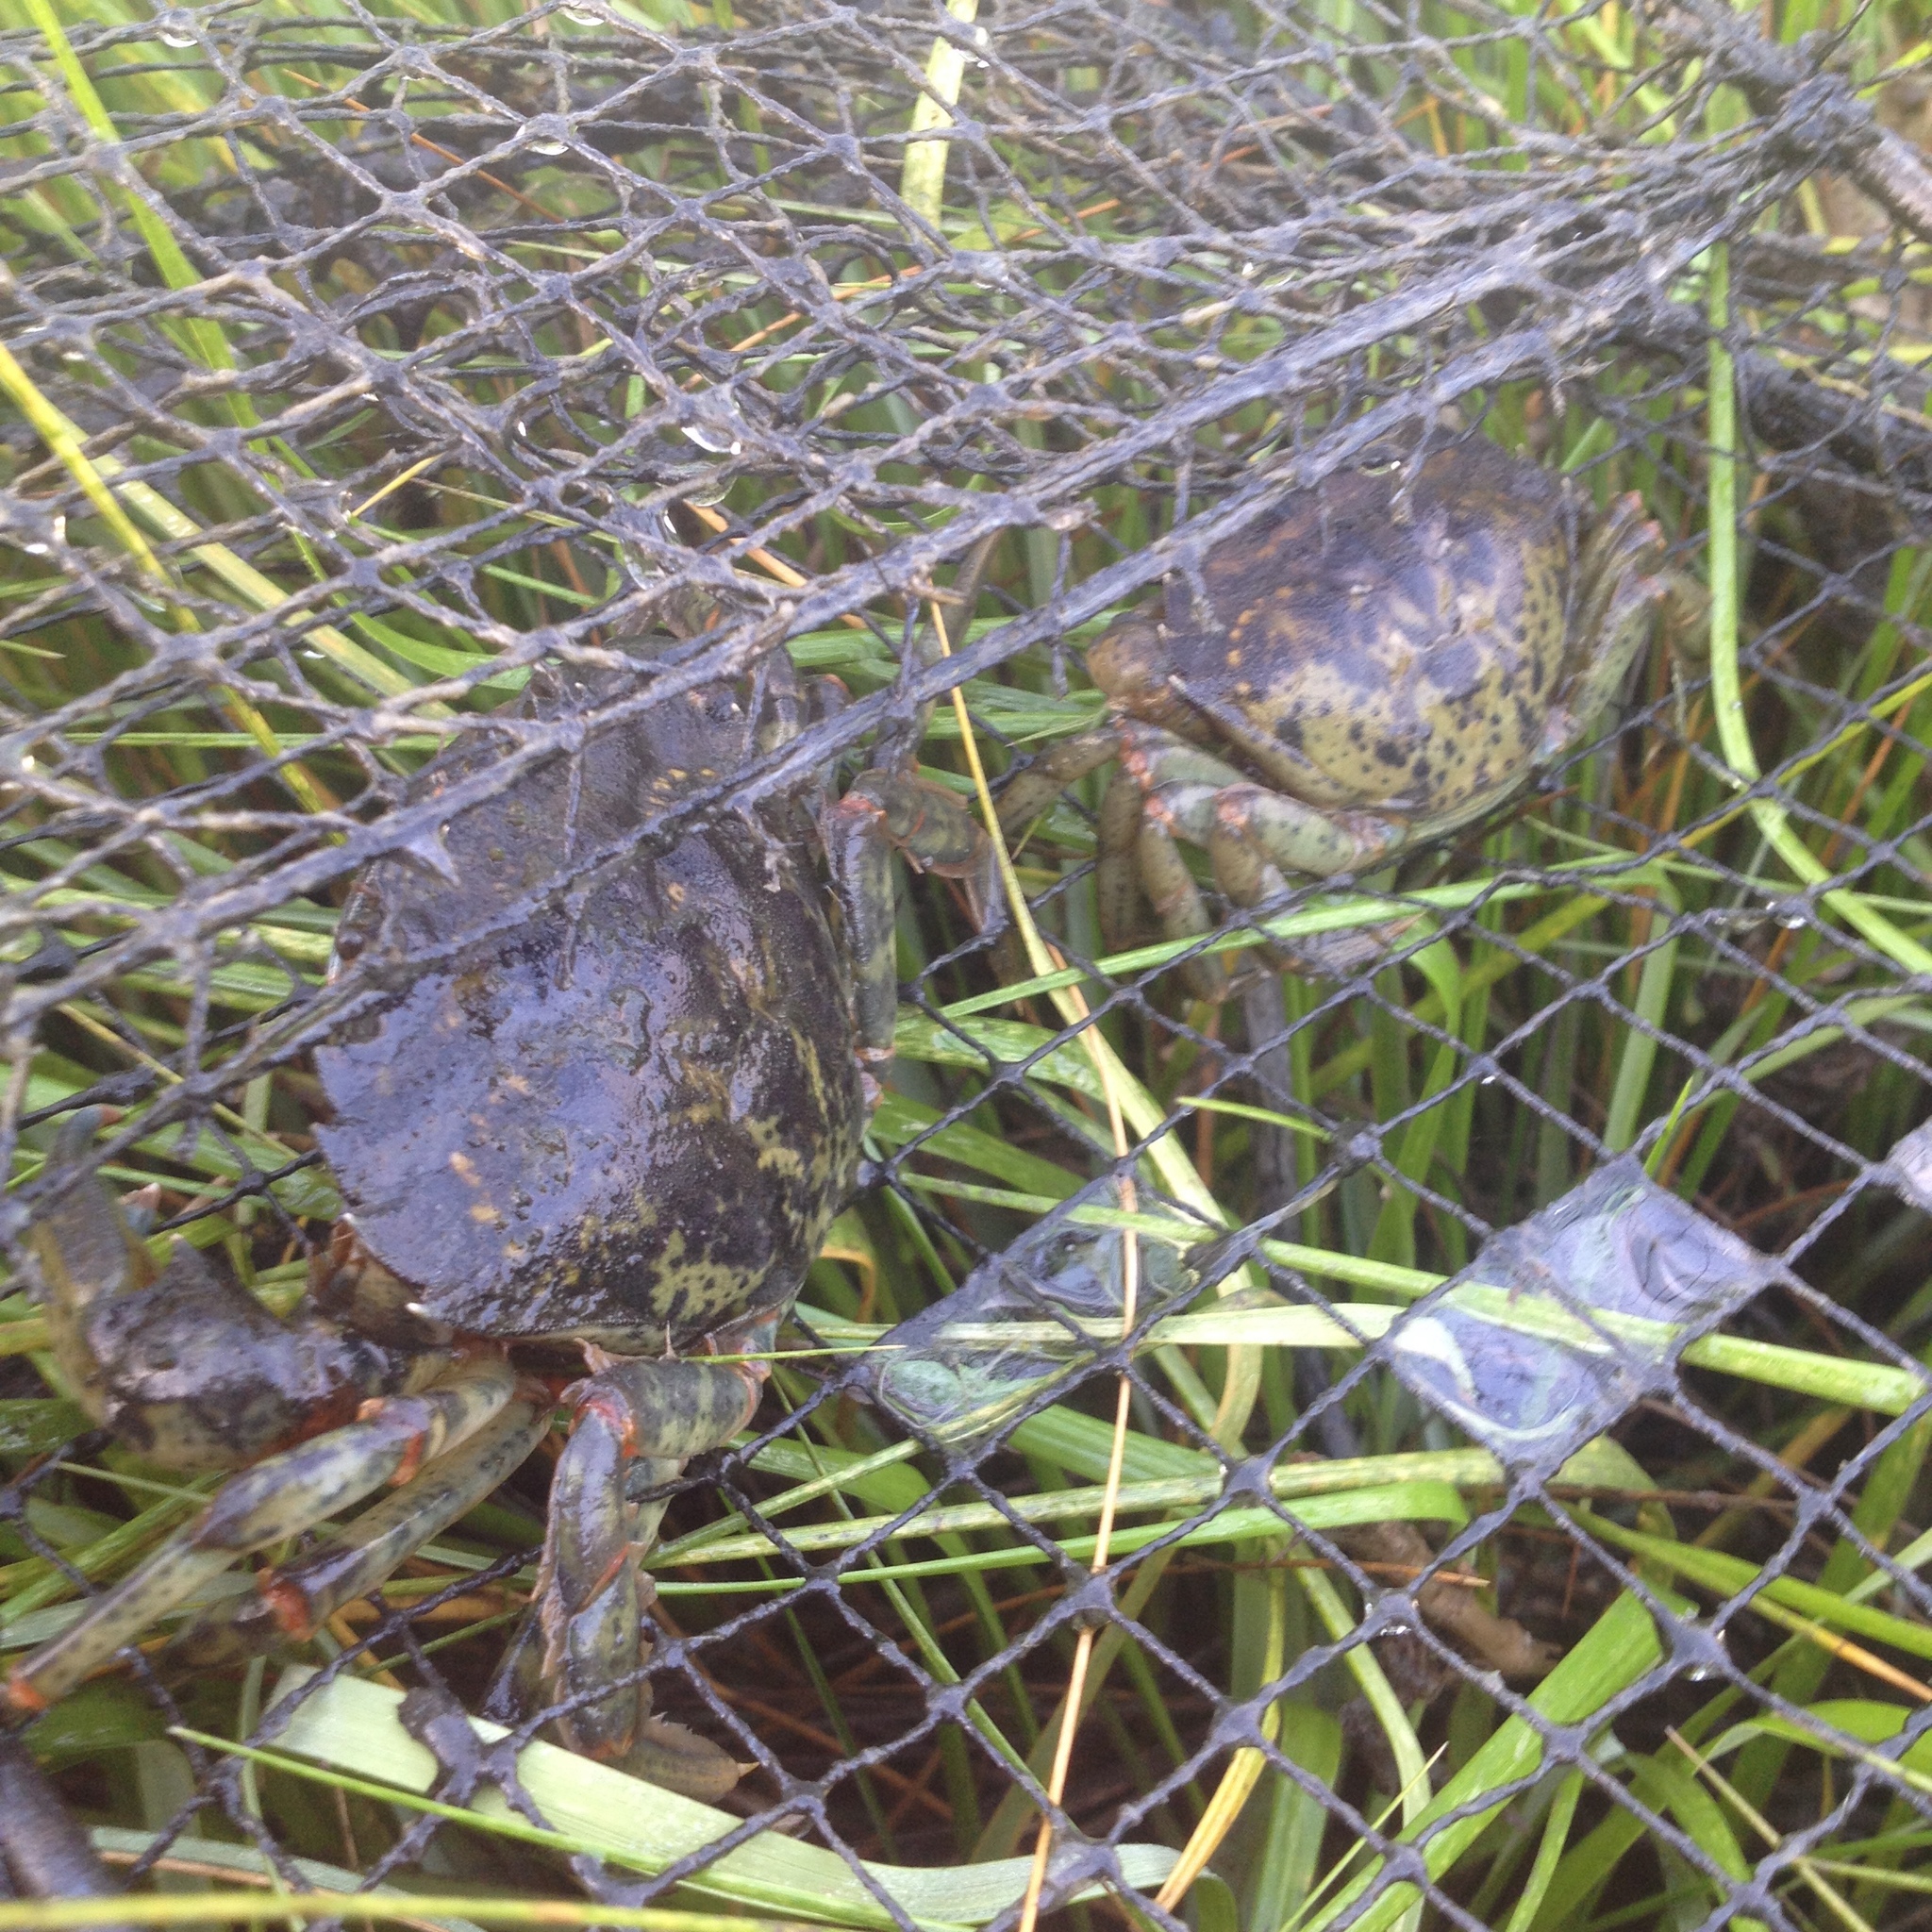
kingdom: Animalia
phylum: Arthropoda
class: Malacostraca
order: Decapoda
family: Carcinidae
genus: Carcinus
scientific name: Carcinus maenas
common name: European green crab
